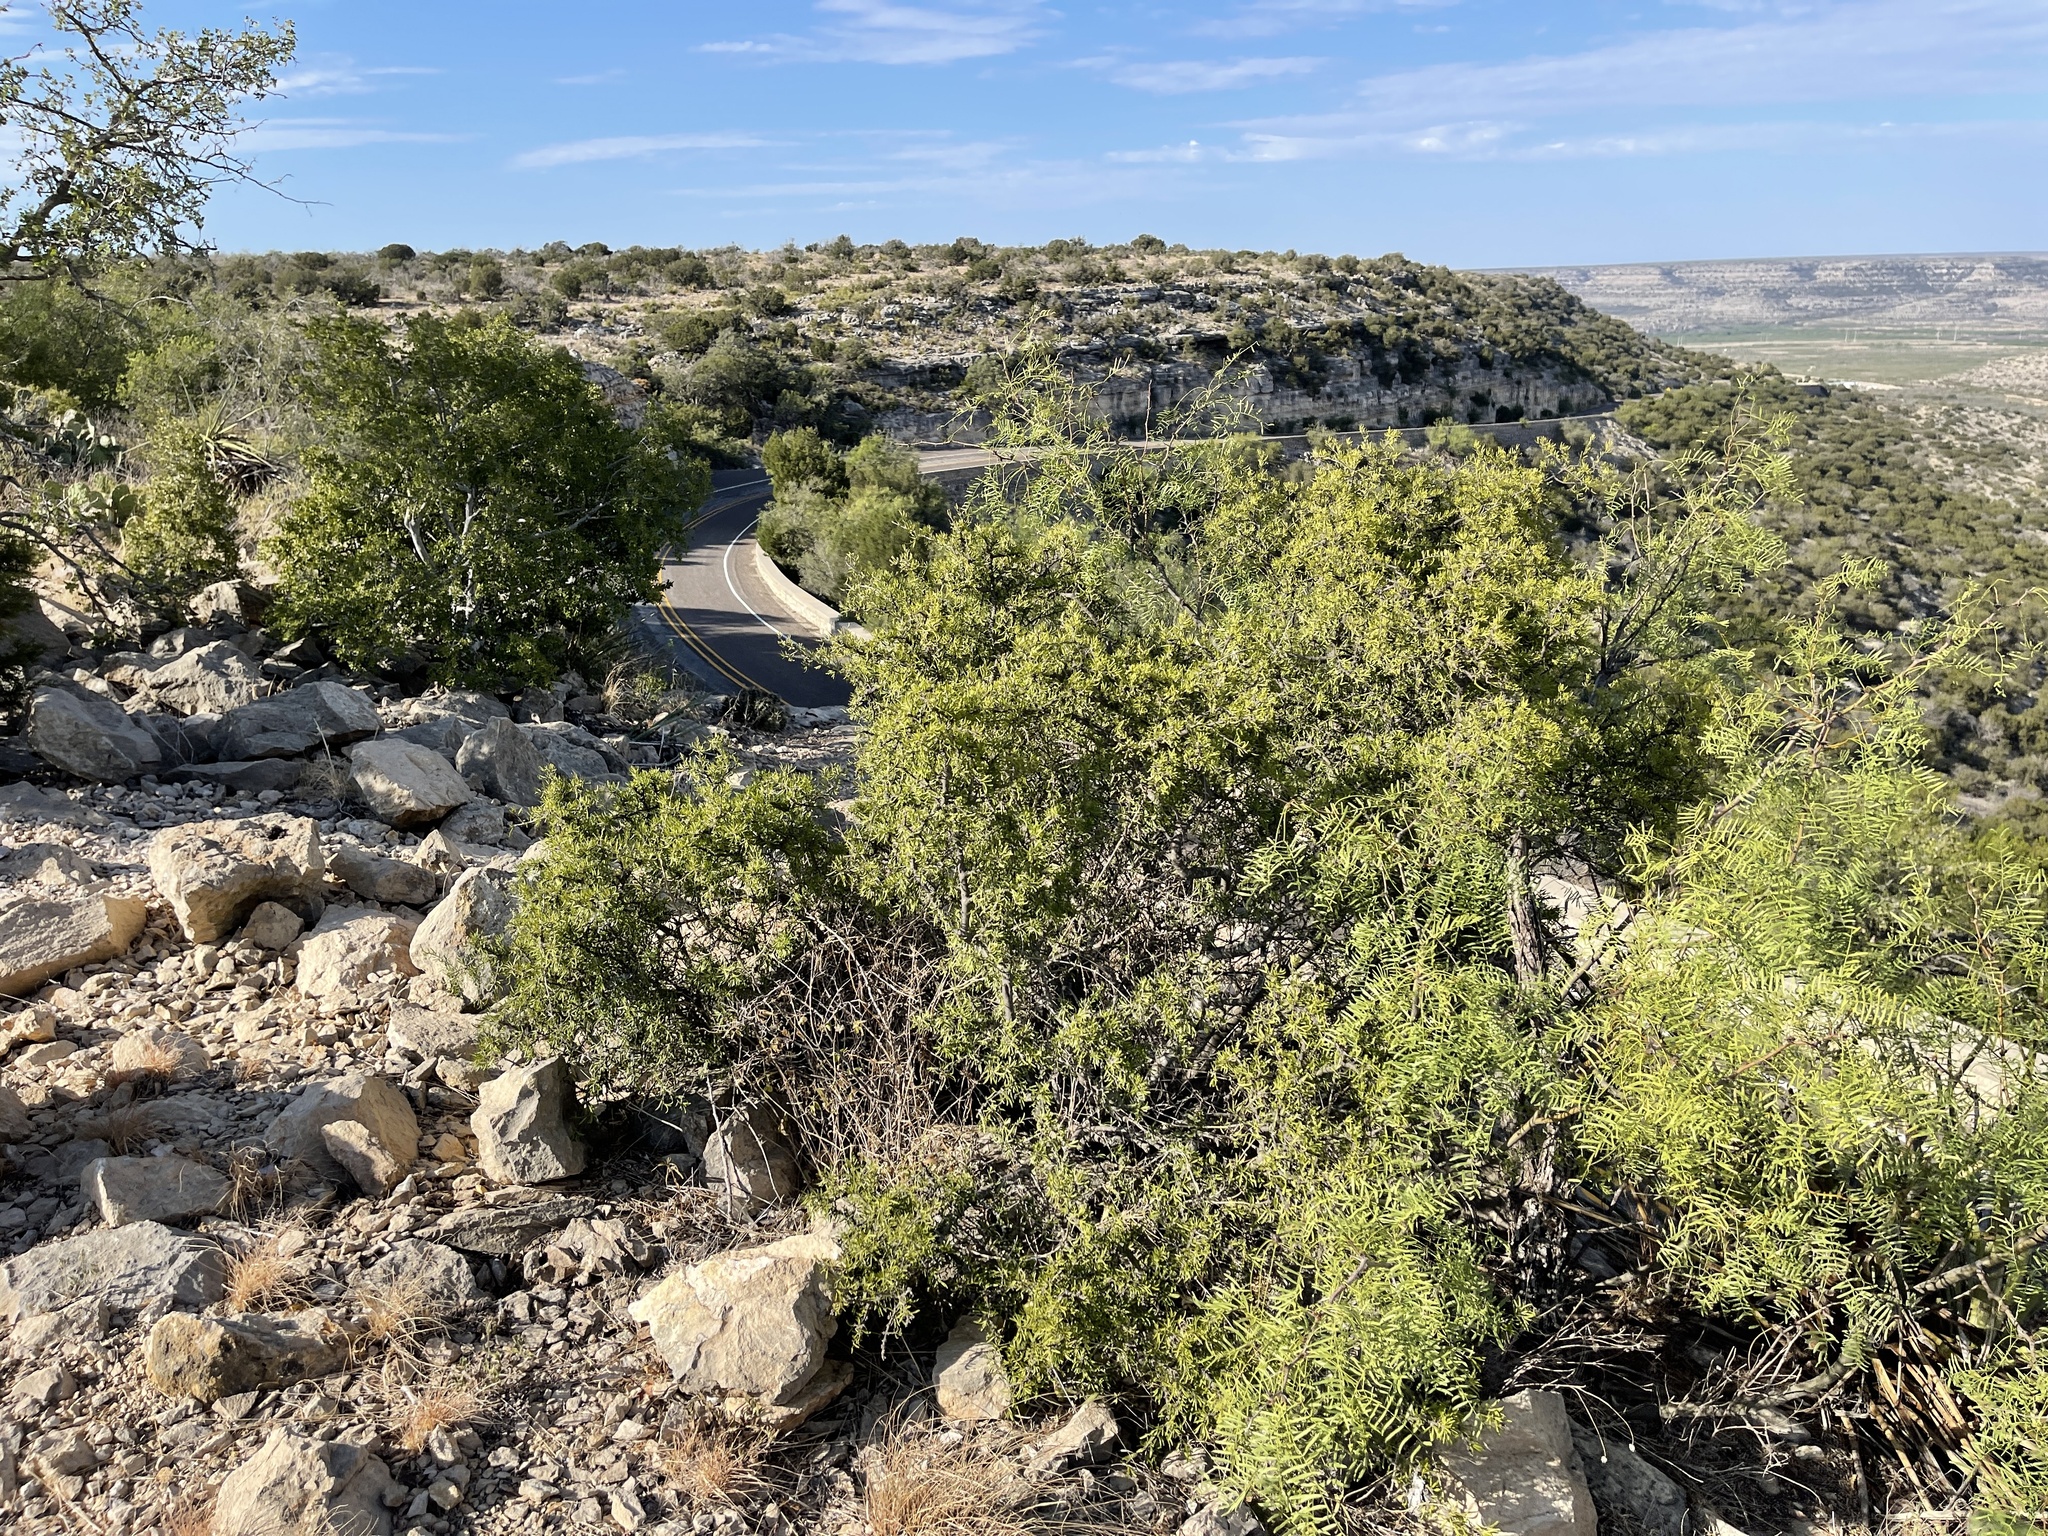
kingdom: Plantae
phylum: Tracheophyta
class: Magnoliopsida
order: Lamiales
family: Oleaceae
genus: Forestiera
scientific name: Forestiera angustifolia
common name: Elbowbush
